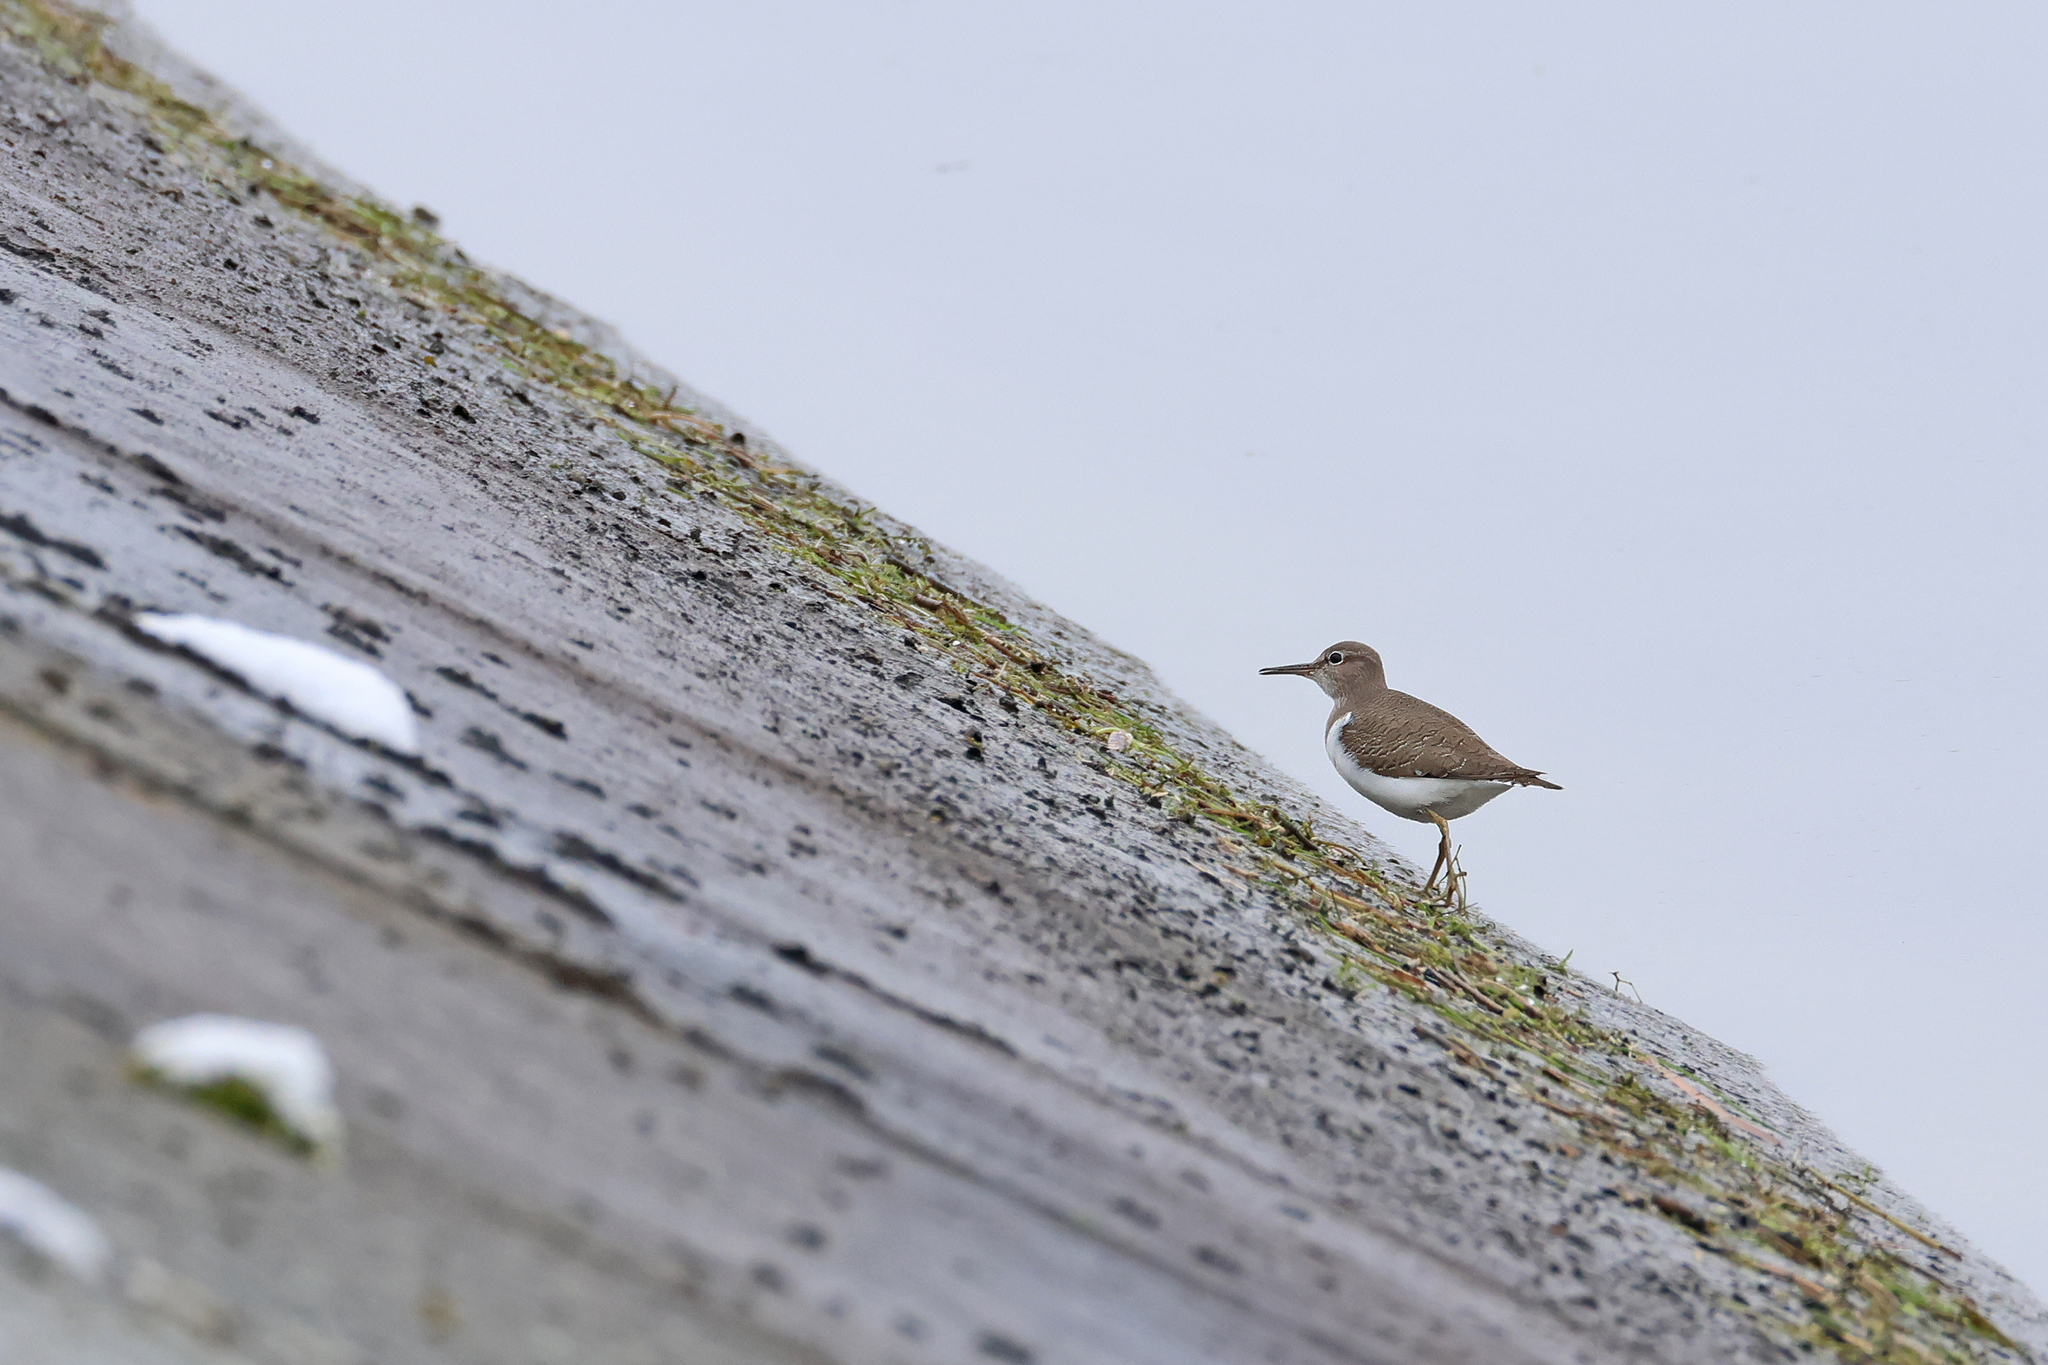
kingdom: Animalia
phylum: Chordata
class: Aves
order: Charadriiformes
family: Scolopacidae
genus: Actitis
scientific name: Actitis hypoleucos
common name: Common sandpiper
